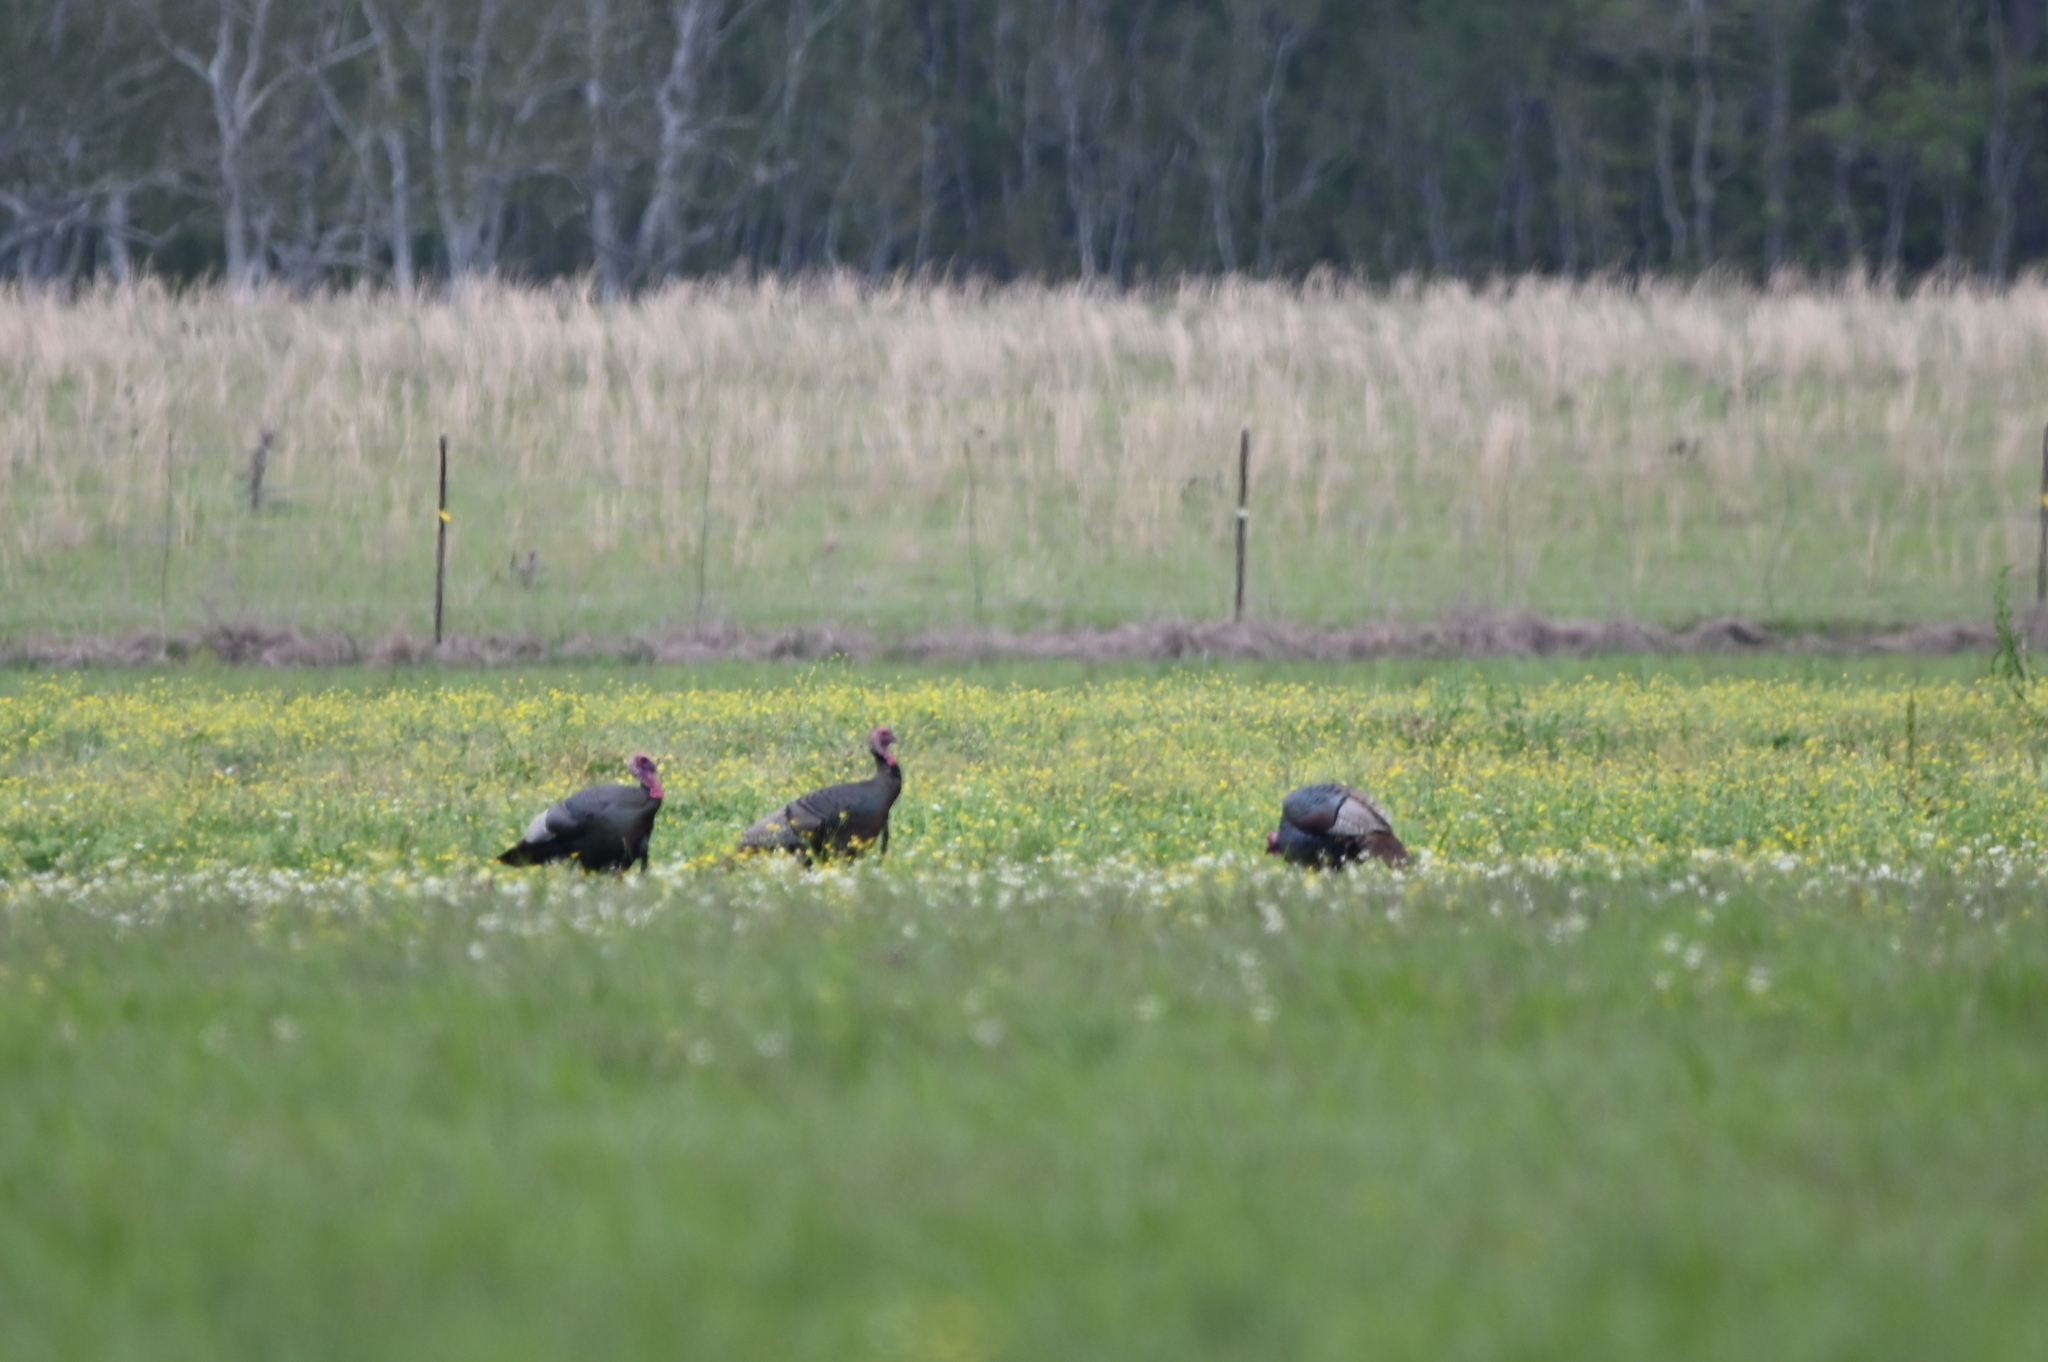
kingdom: Animalia
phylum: Chordata
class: Aves
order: Galliformes
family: Phasianidae
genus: Meleagris
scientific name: Meleagris gallopavo
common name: Wild turkey
